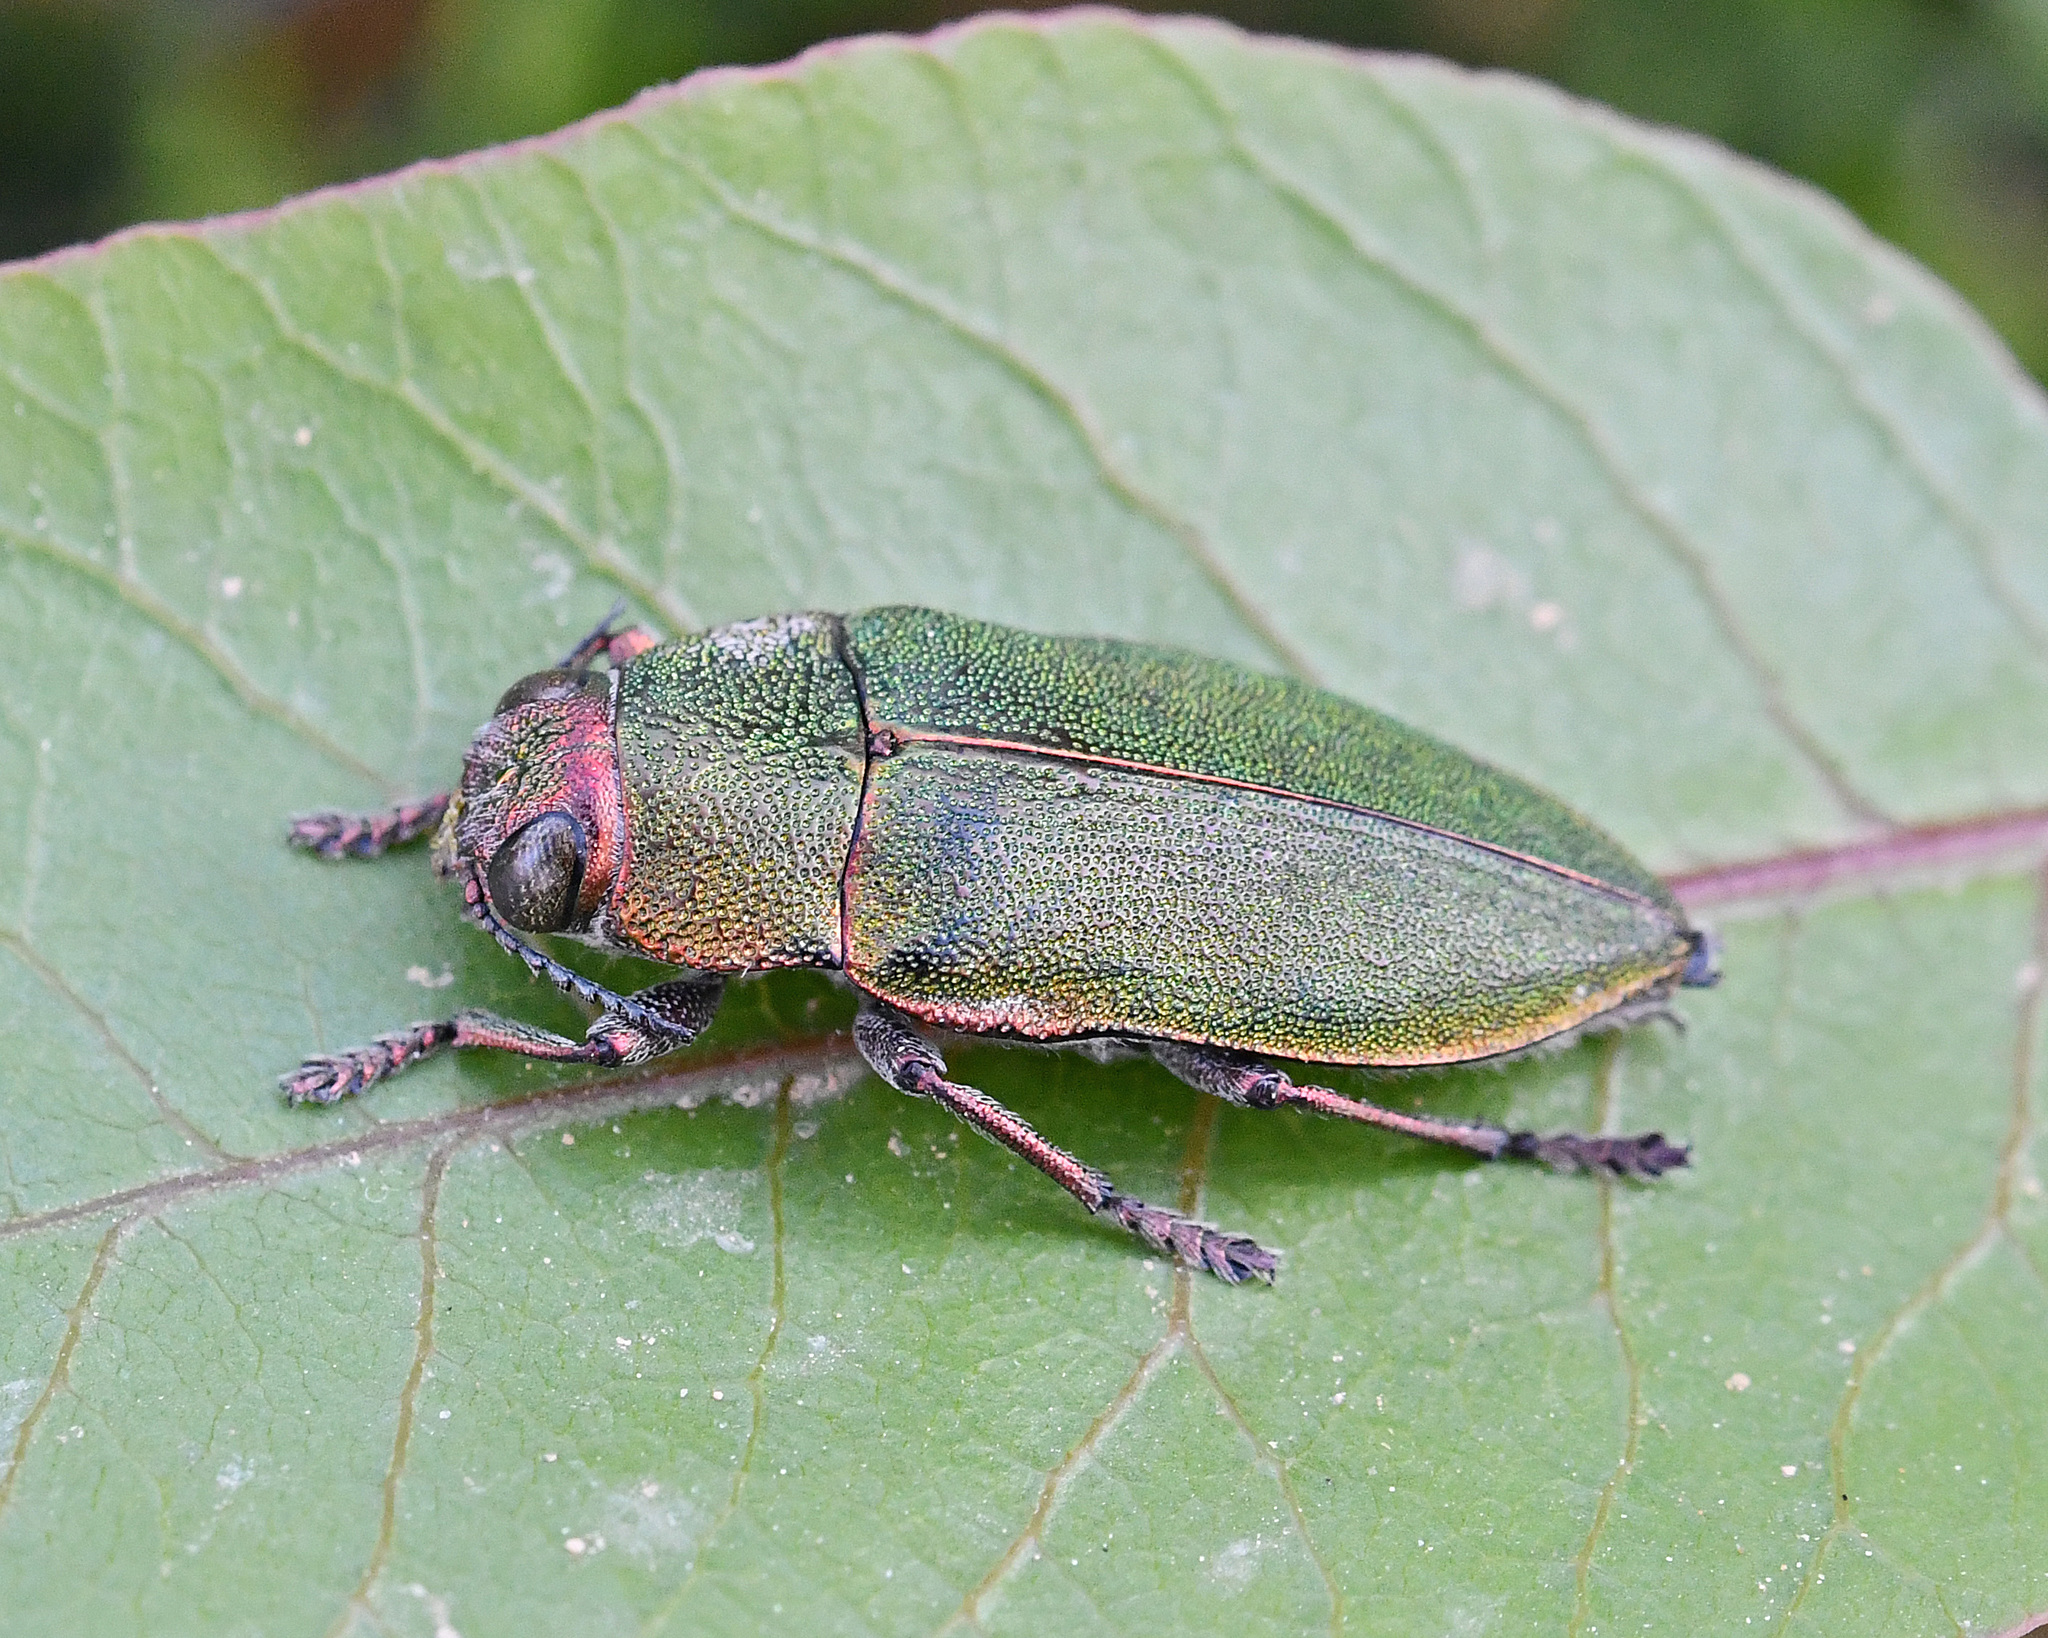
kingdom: Animalia
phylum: Arthropoda
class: Insecta
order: Coleoptera
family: Buprestidae
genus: Perotis
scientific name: Perotis susannae
